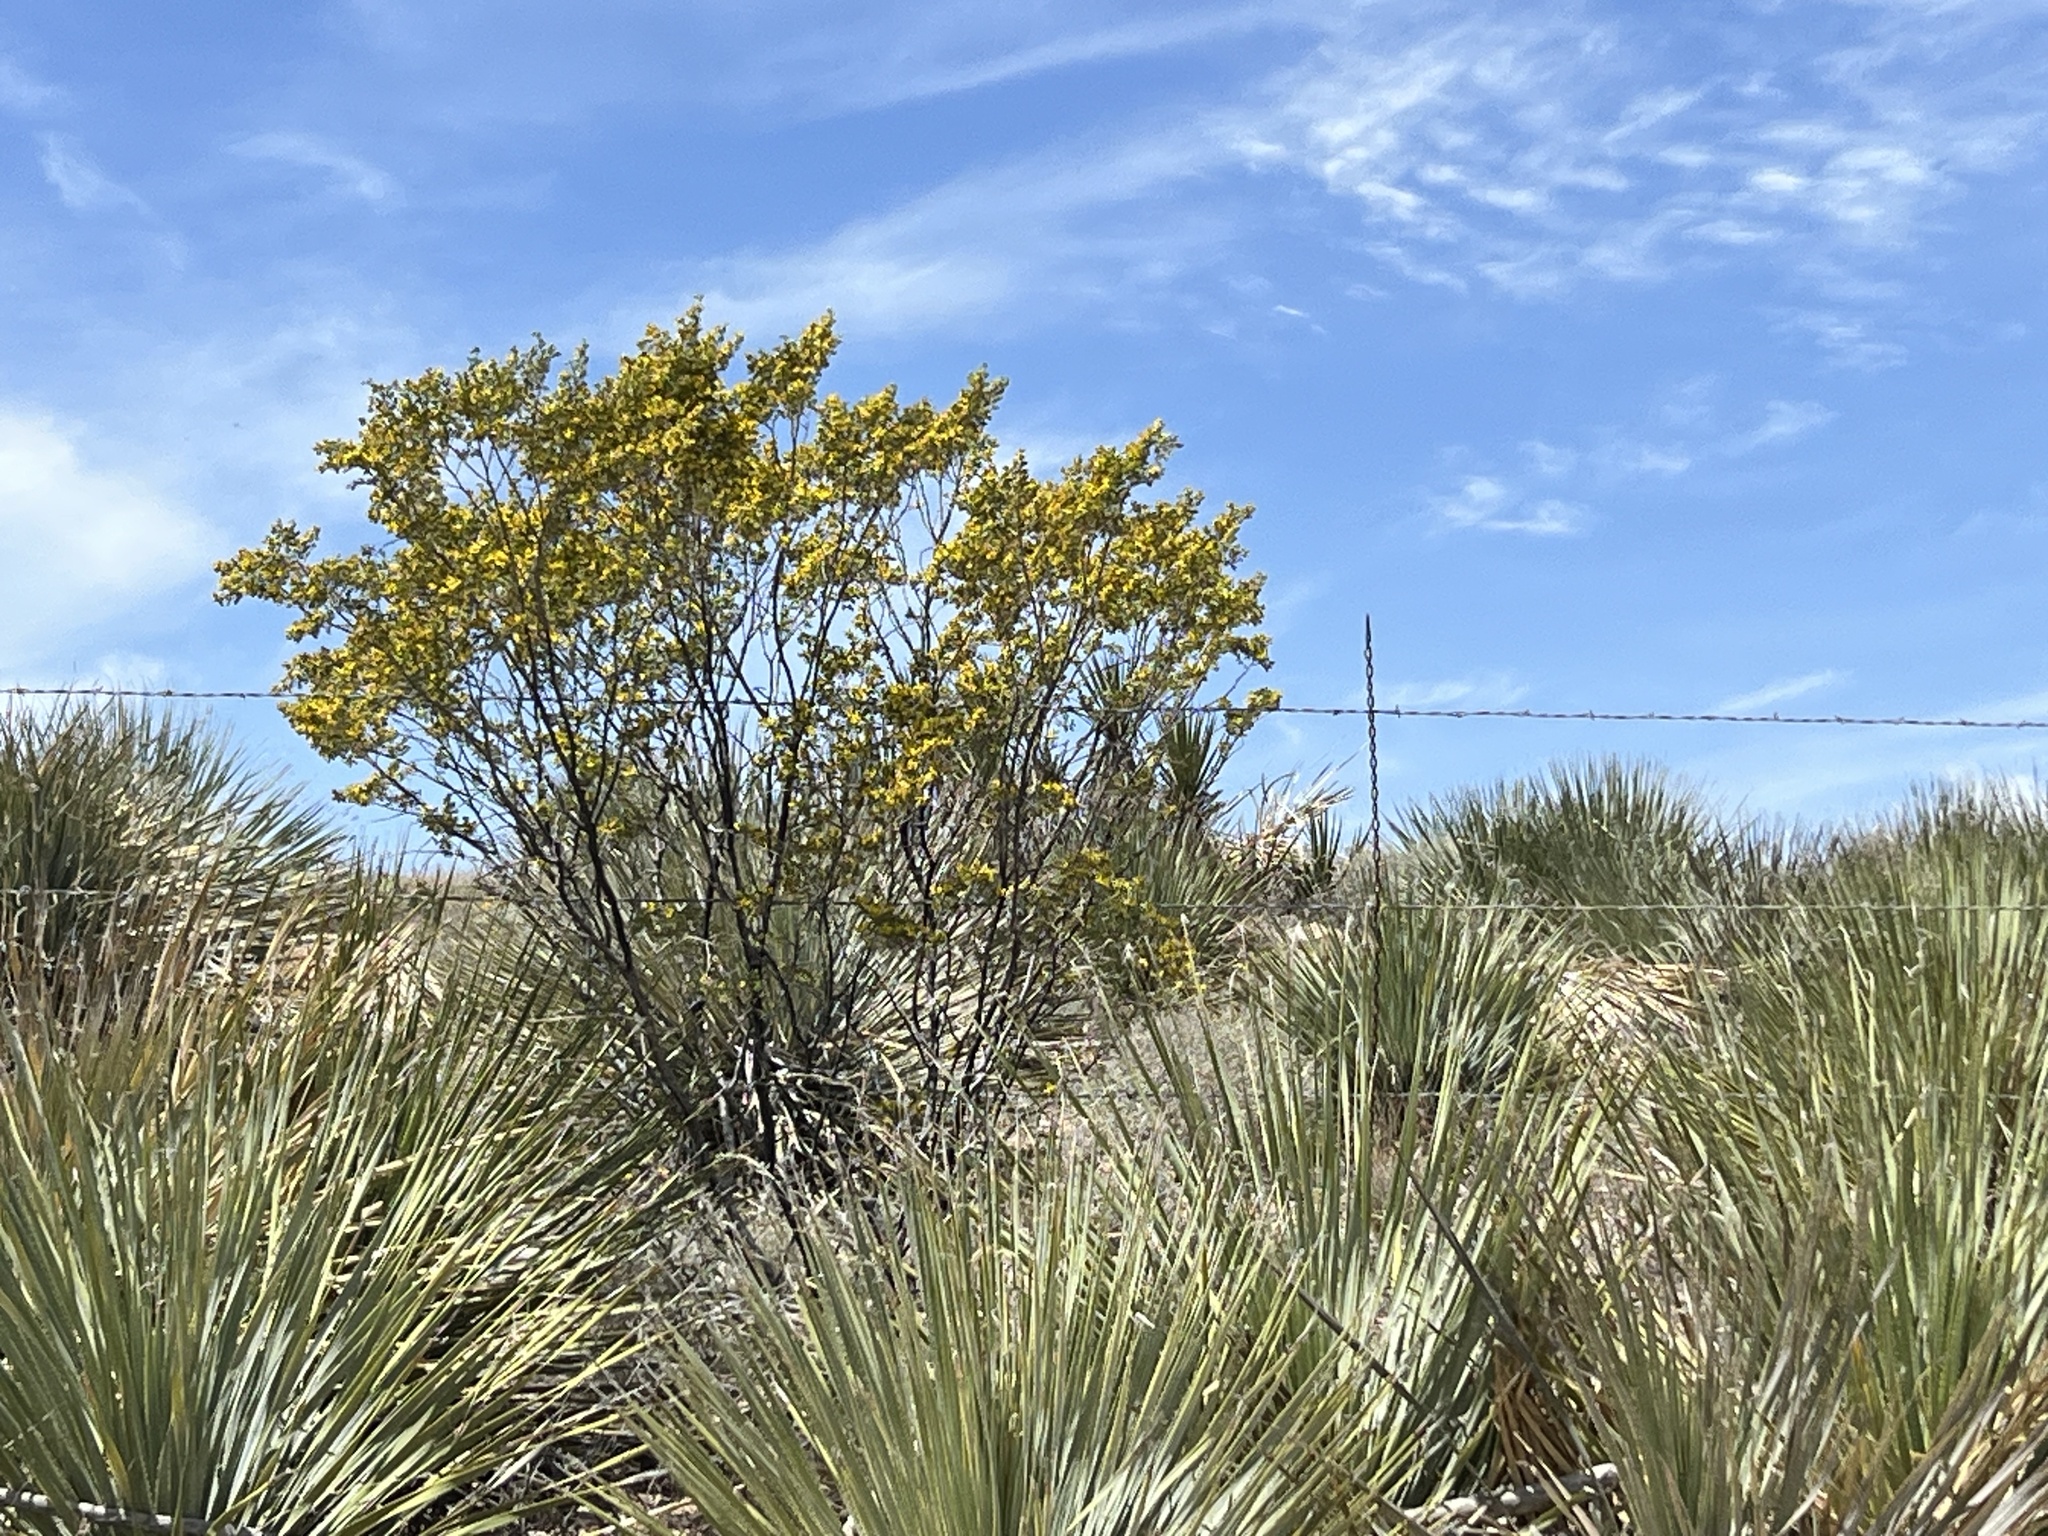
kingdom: Plantae
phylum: Tracheophyta
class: Magnoliopsida
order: Zygophyllales
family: Zygophyllaceae
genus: Larrea
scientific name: Larrea tridentata
